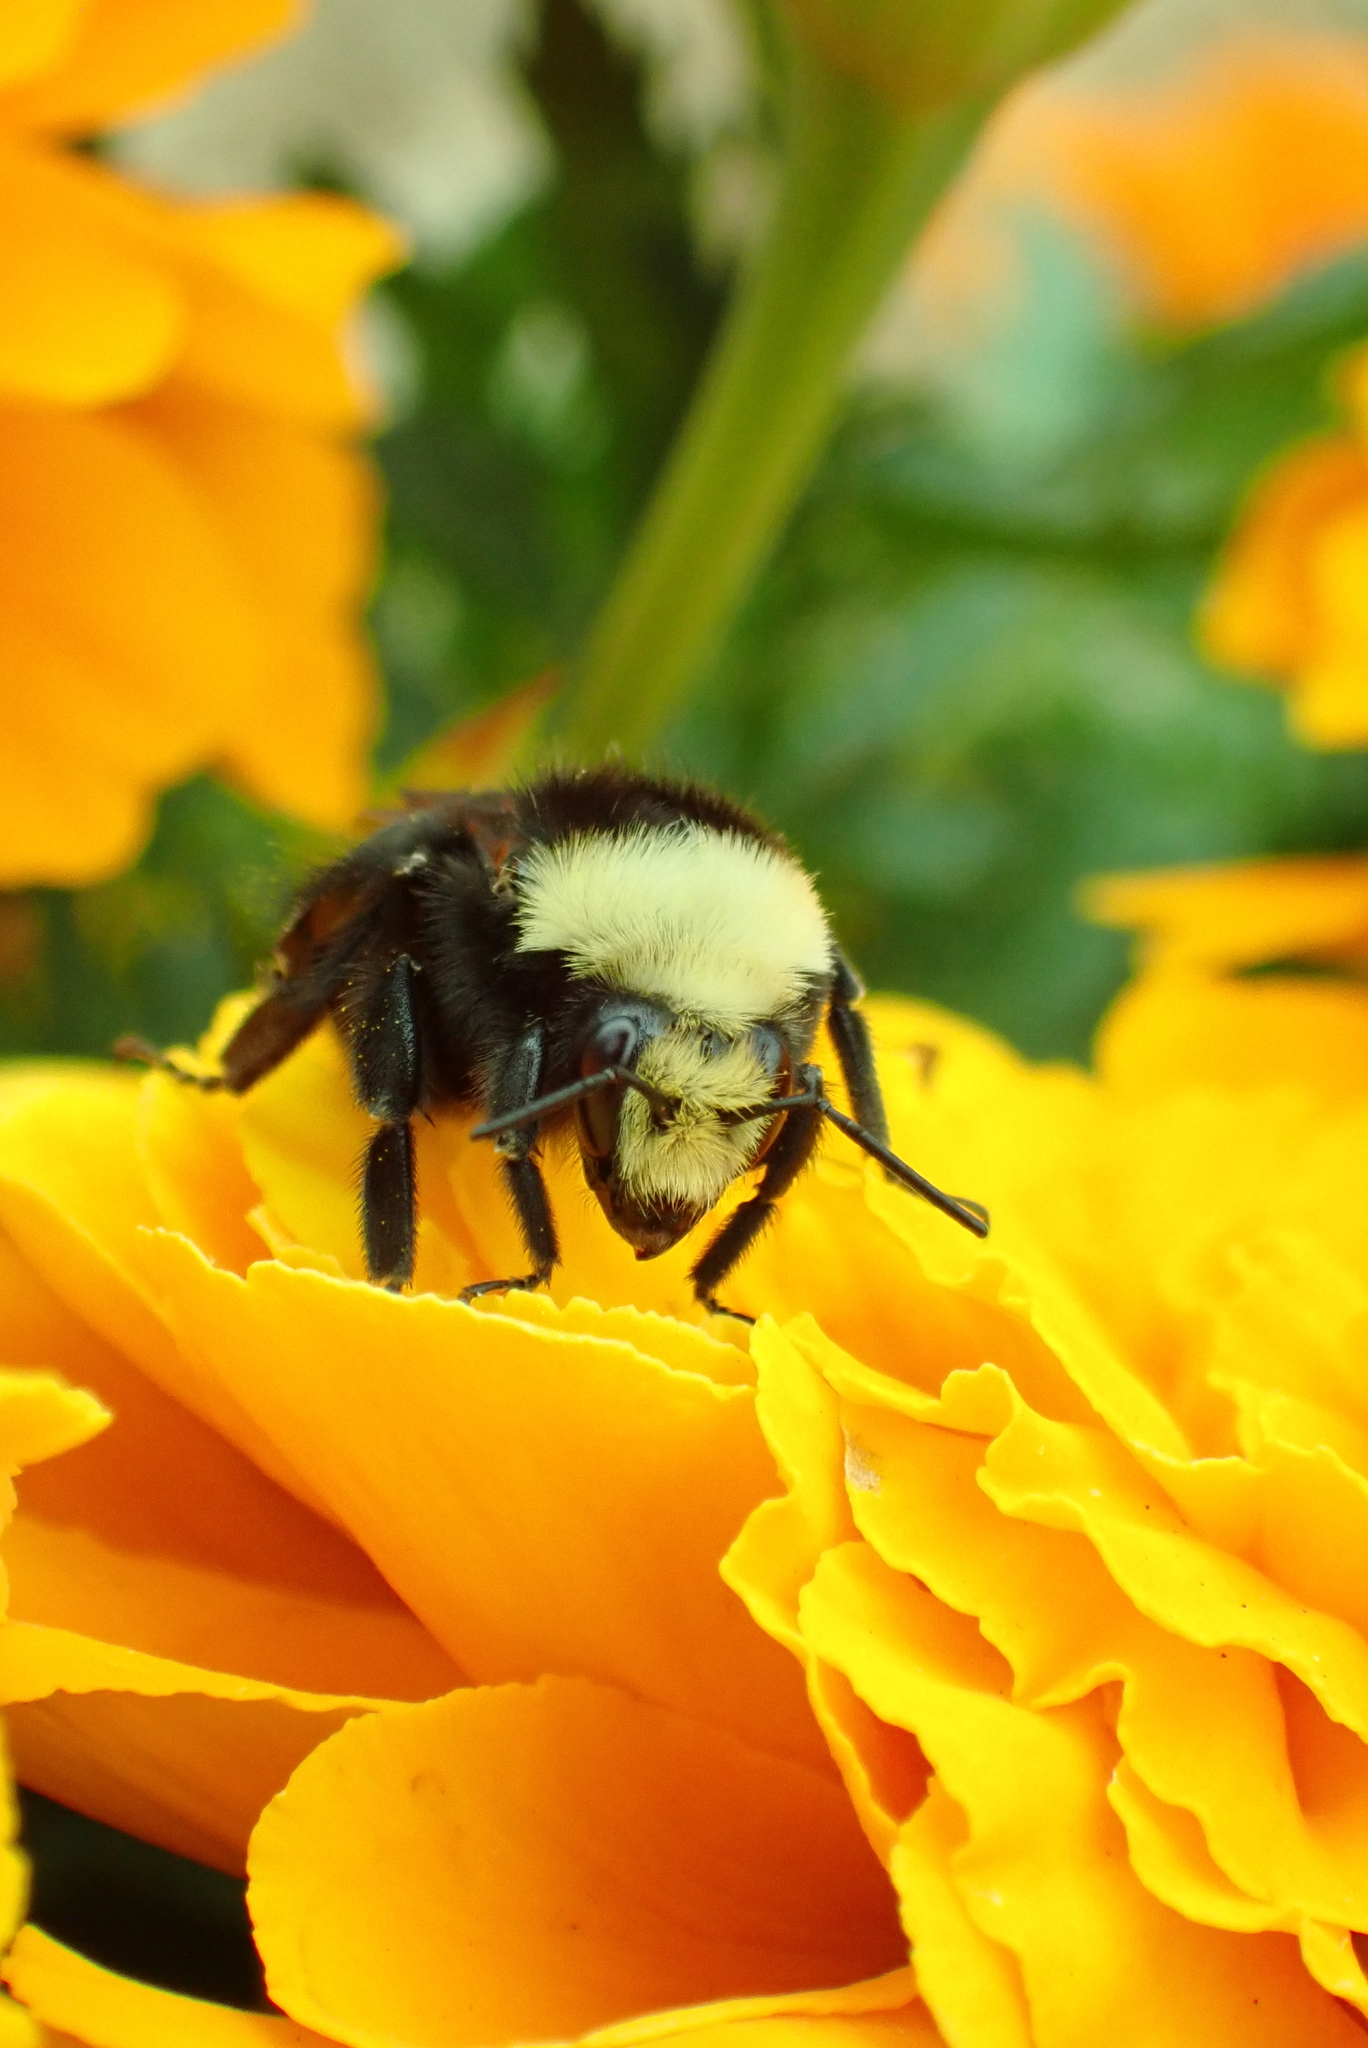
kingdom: Animalia
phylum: Arthropoda
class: Insecta
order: Hymenoptera
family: Apidae
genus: Bombus
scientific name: Bombus vosnesenskii
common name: Vosnesensky bumble bee
